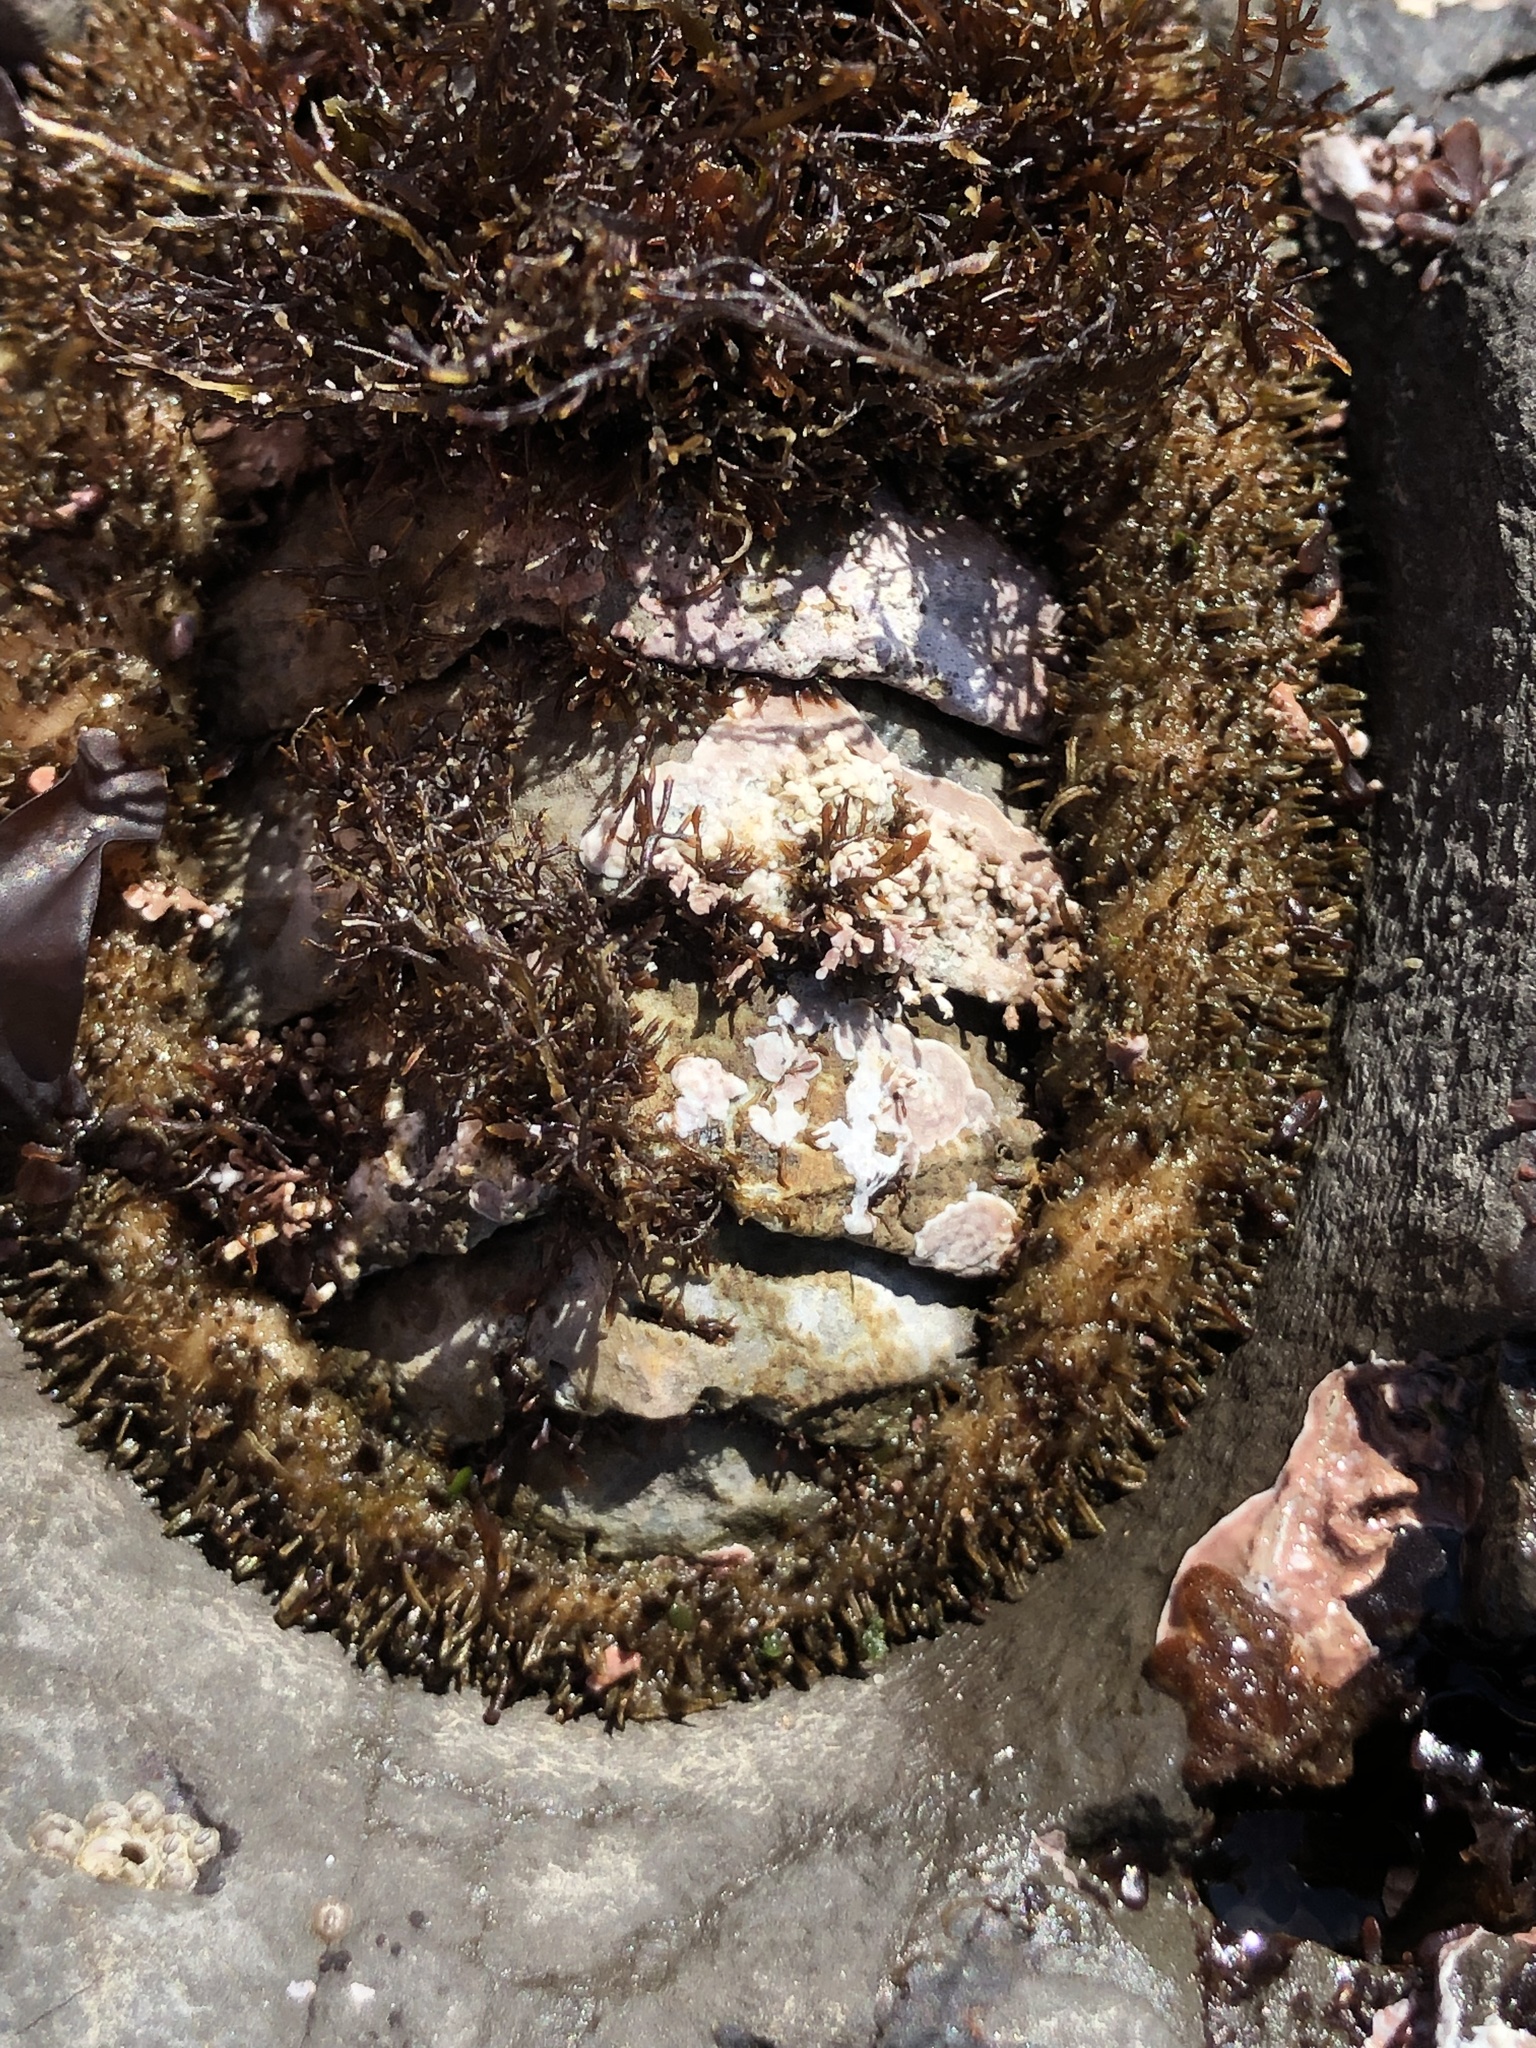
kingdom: Animalia
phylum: Mollusca
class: Polyplacophora
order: Chitonida
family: Mopaliidae
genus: Mopalia
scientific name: Mopalia muscosa
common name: Mossy chiton
